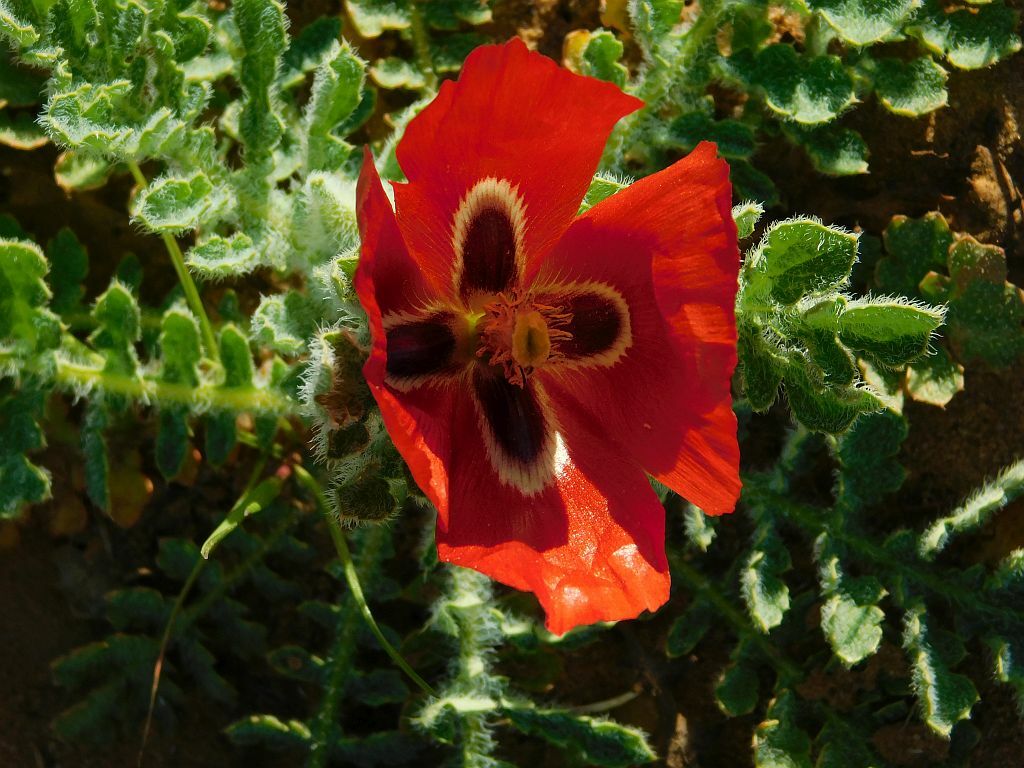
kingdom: Plantae
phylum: Tracheophyta
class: Magnoliopsida
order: Ranunculales
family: Papaveraceae
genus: Glaucium
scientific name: Glaucium corniculatum
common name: Red horned-poppy
